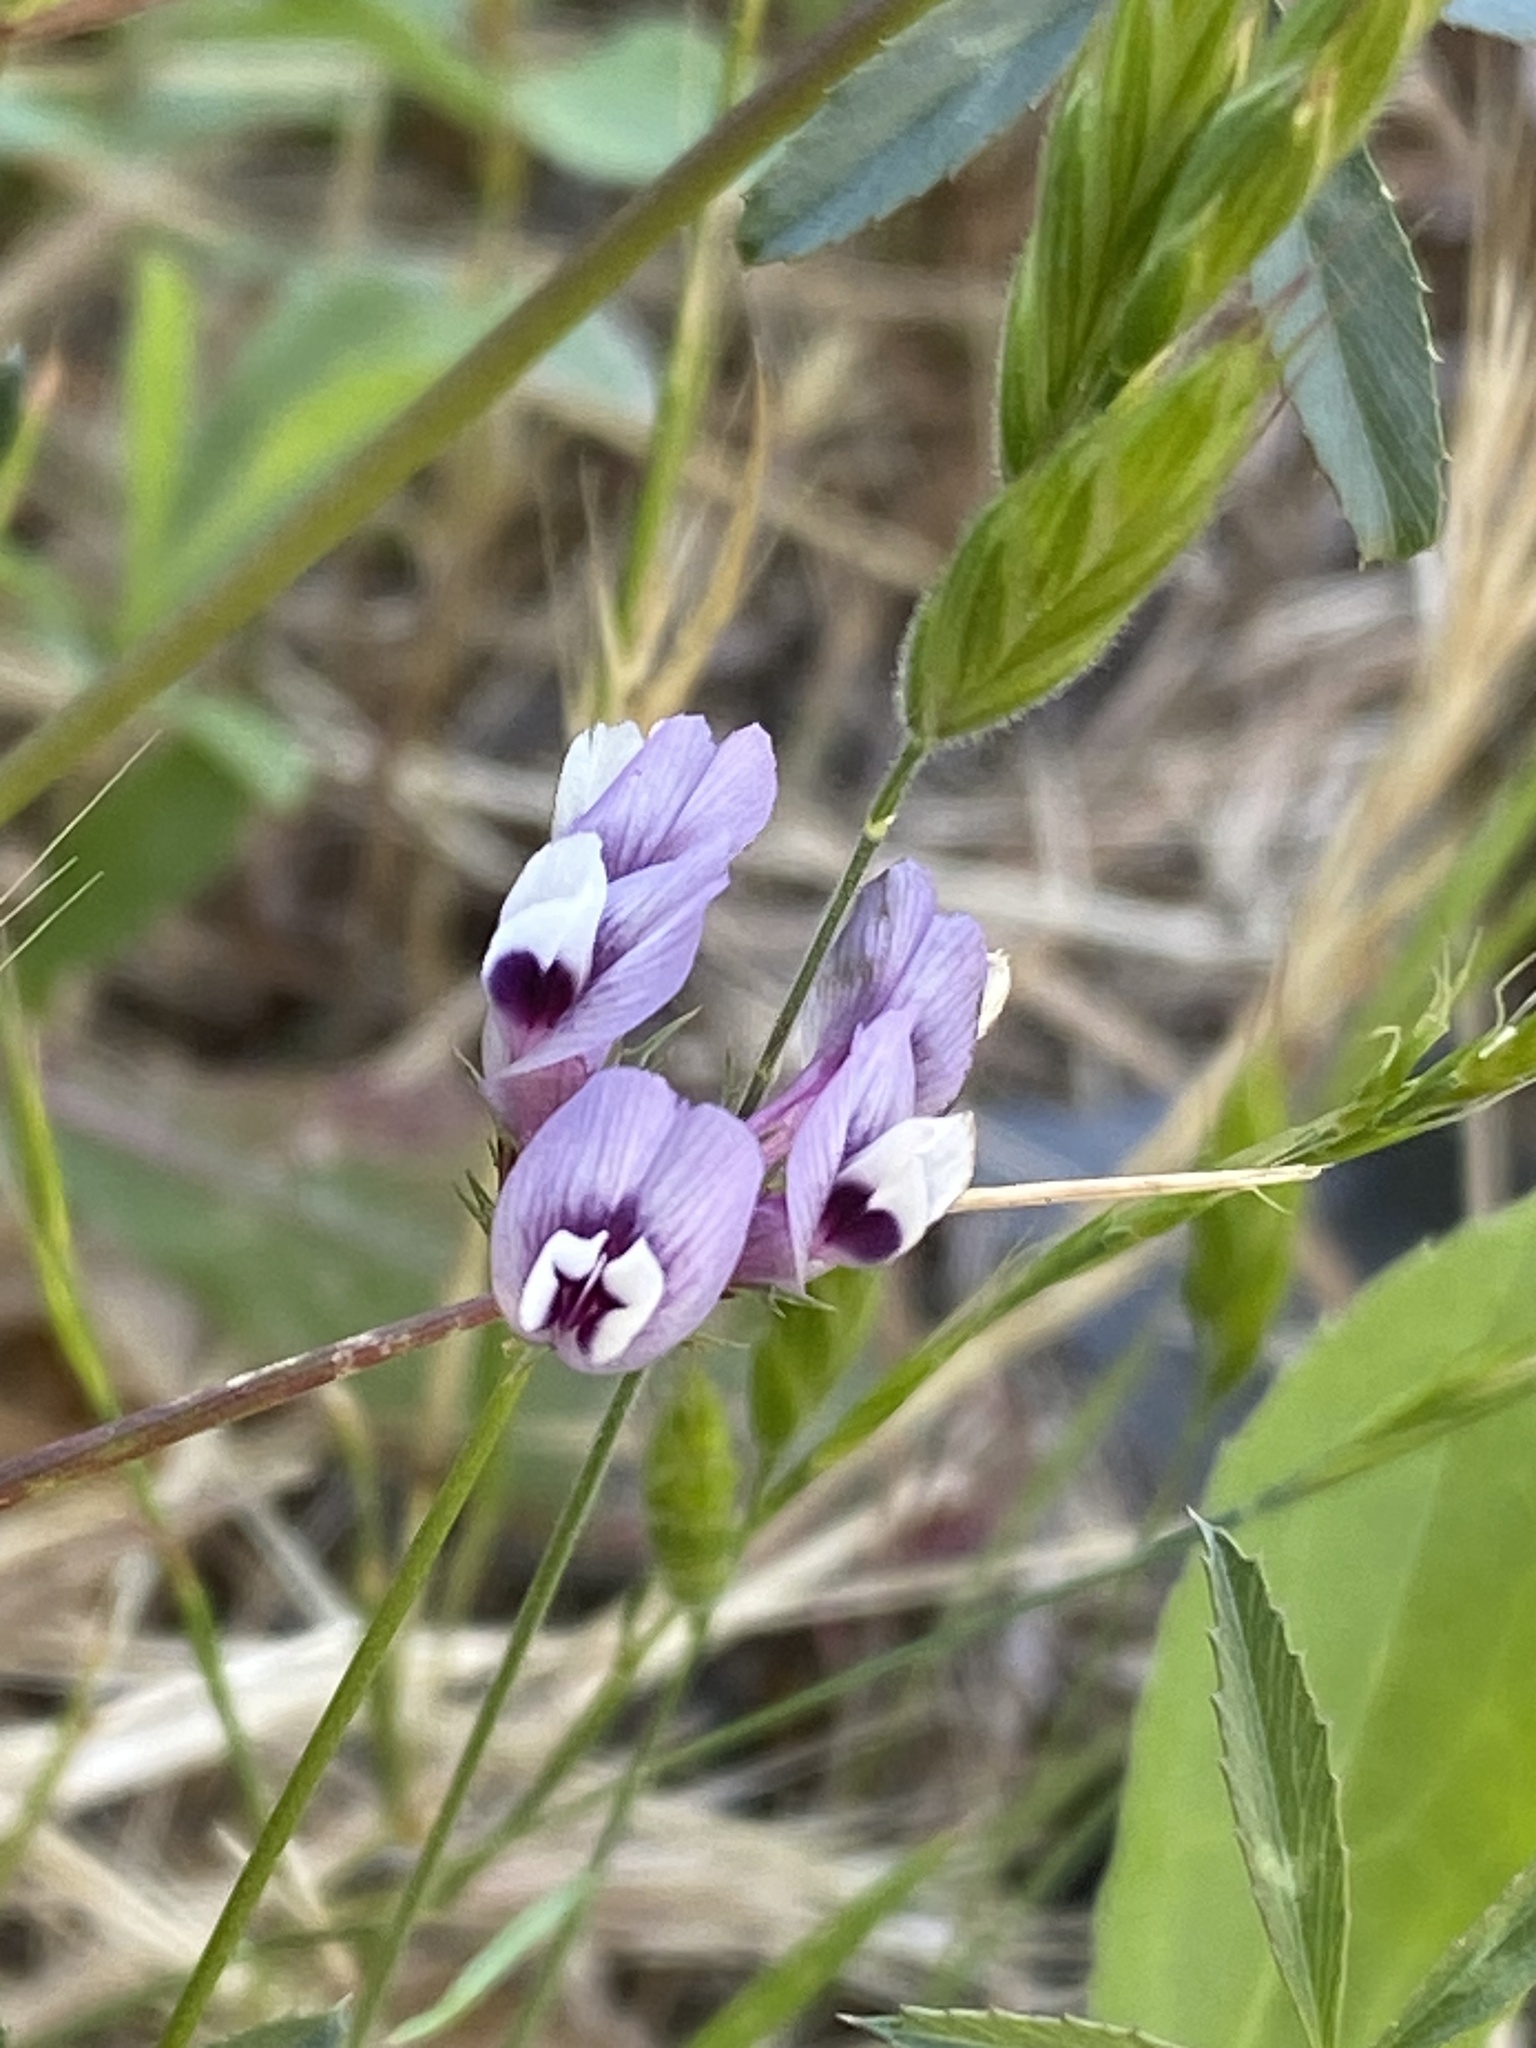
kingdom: Plantae
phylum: Tracheophyta
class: Magnoliopsida
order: Fabales
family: Fabaceae
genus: Trifolium
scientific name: Trifolium willdenovii
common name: Tomcat clover
